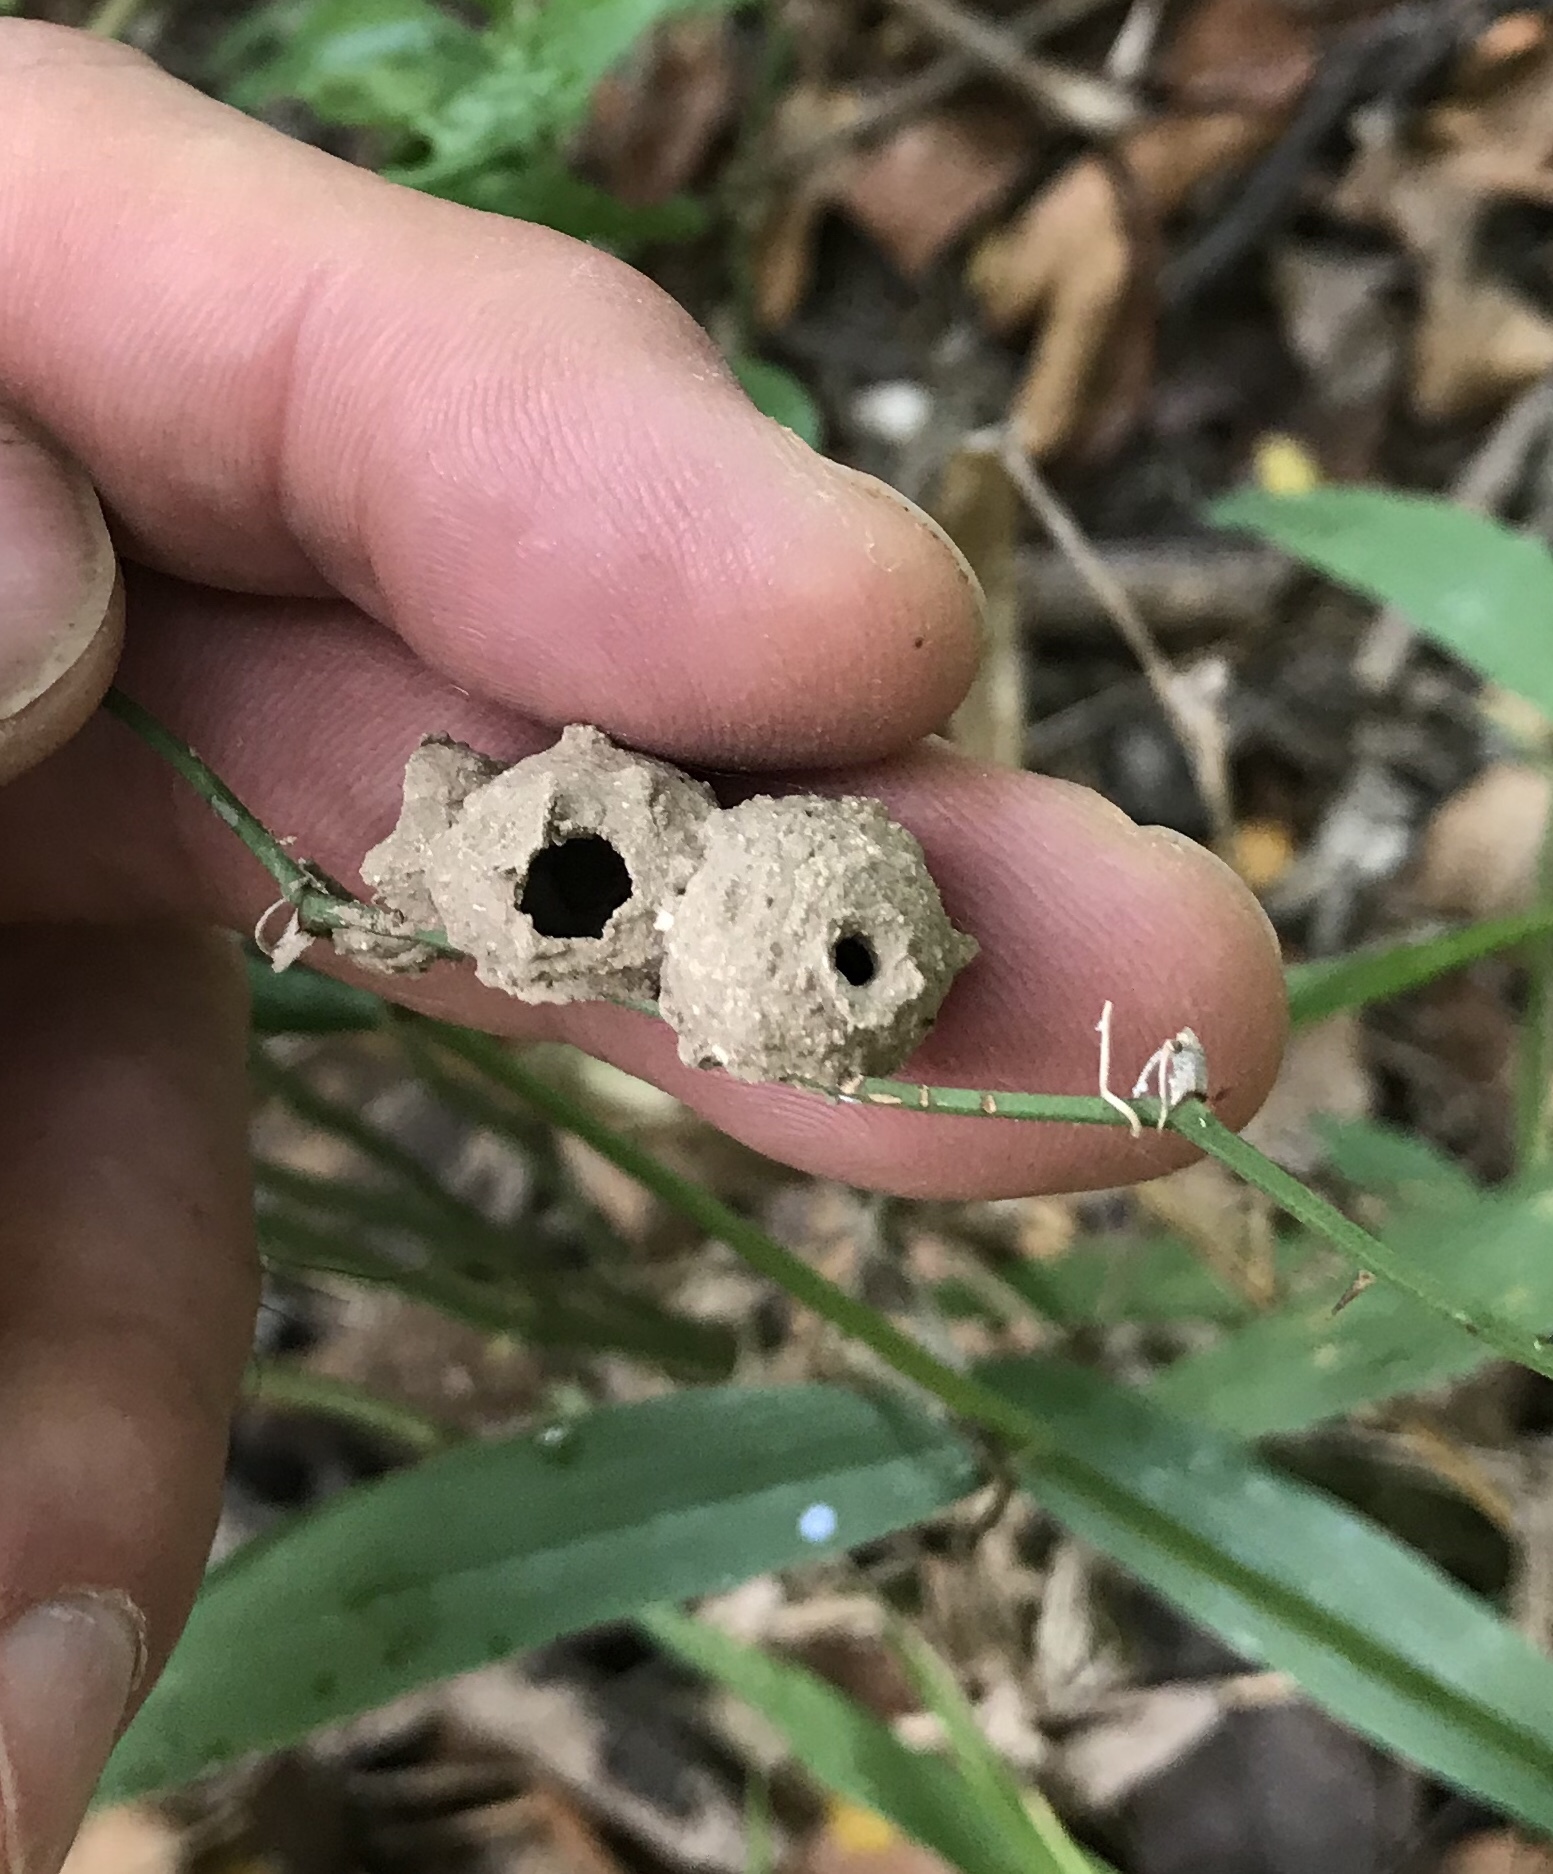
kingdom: Animalia
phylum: Arthropoda
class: Insecta
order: Hymenoptera
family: Vespidae
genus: Eumenes
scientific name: Eumenes
